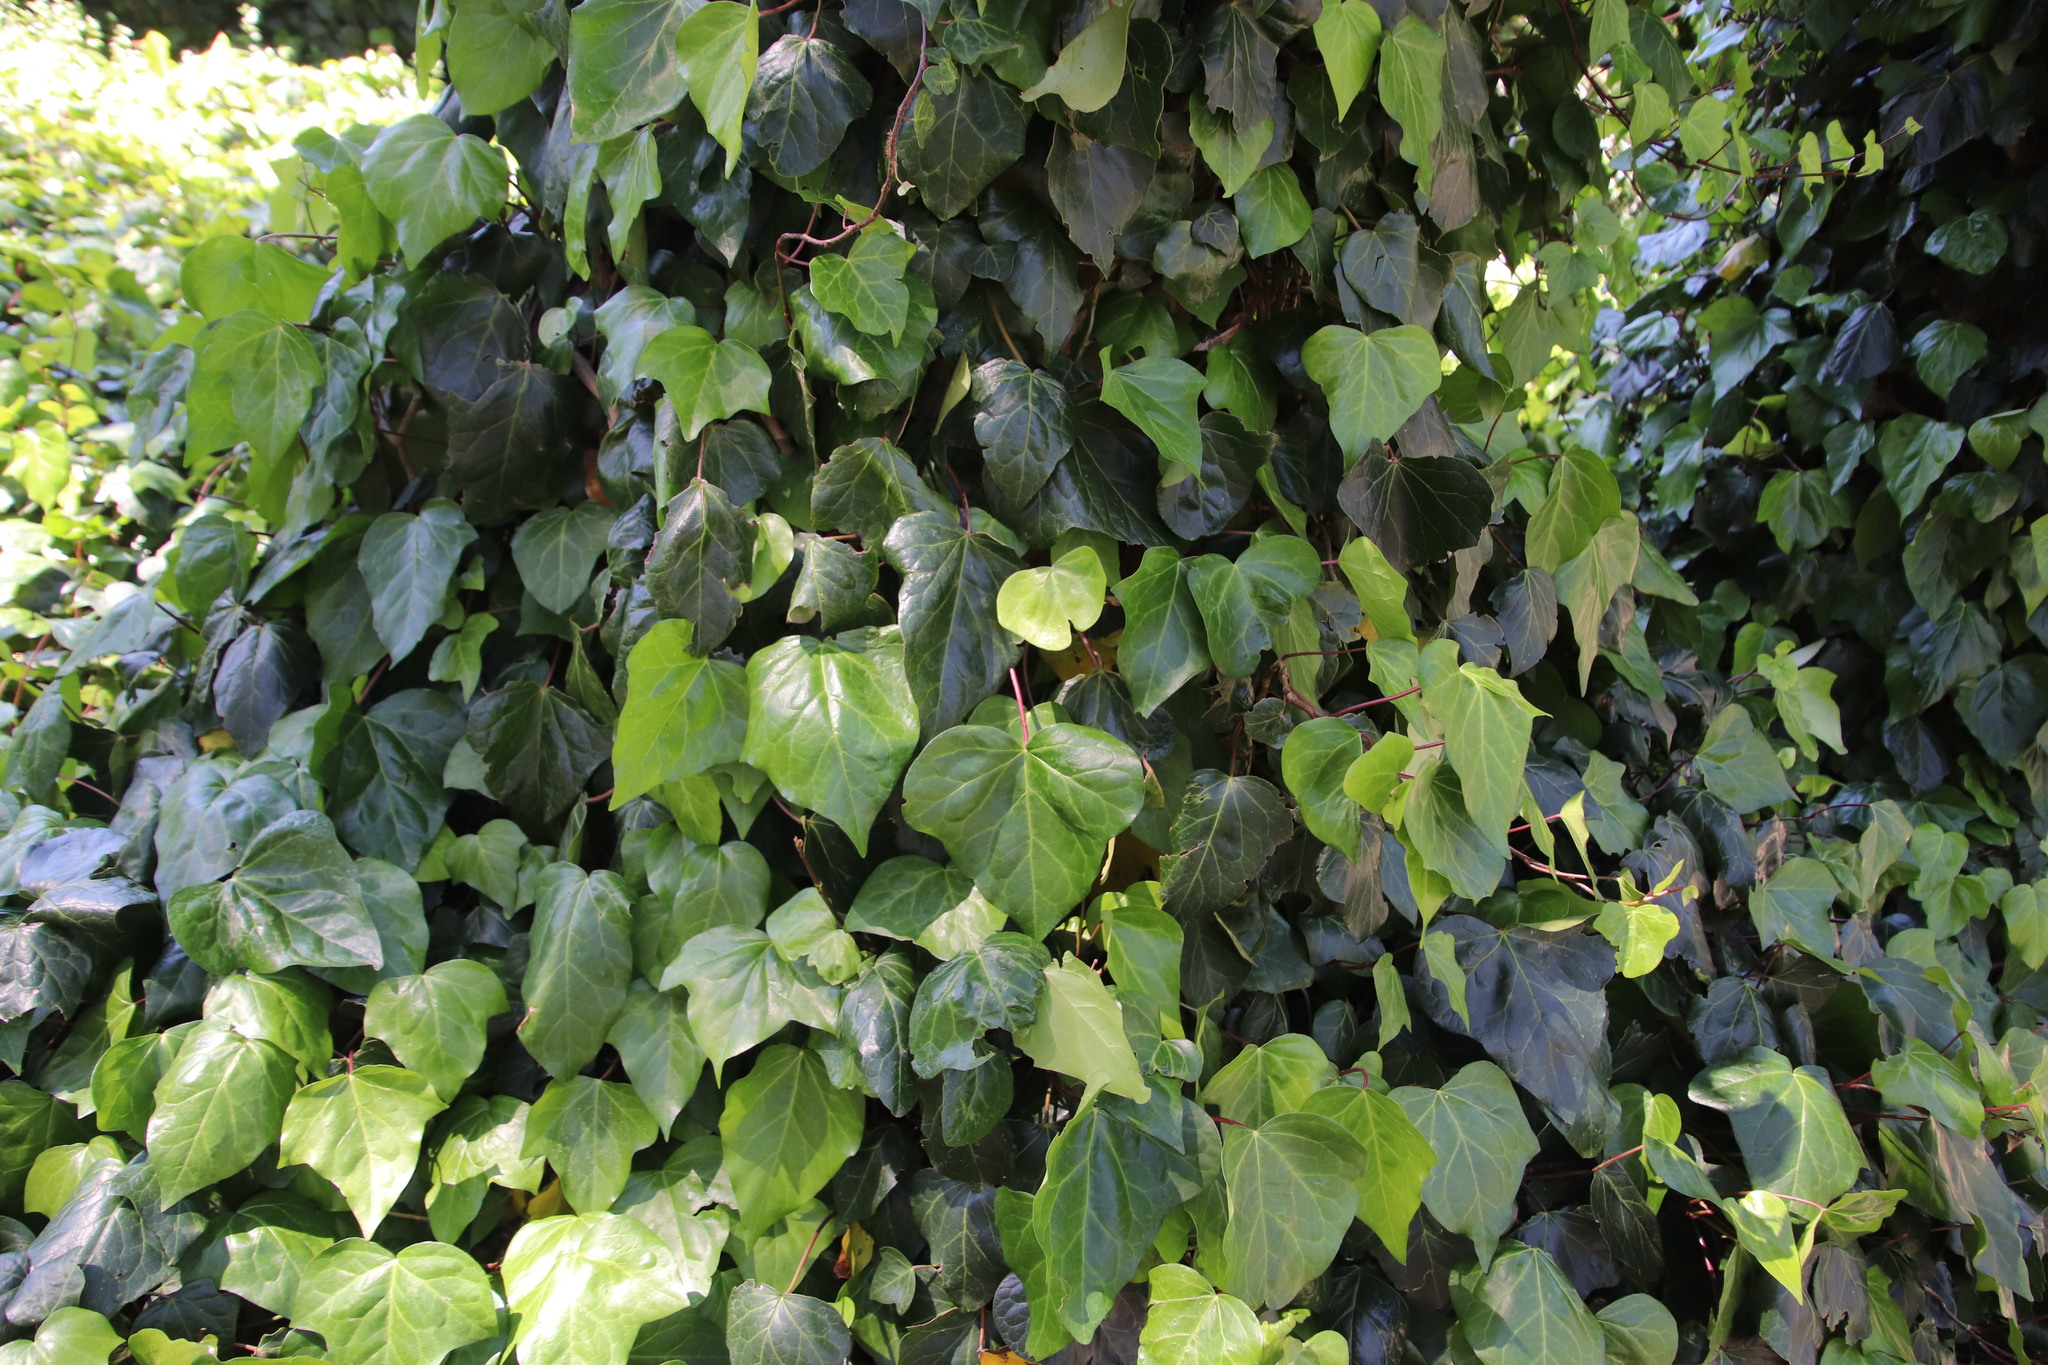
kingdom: Plantae
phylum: Tracheophyta
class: Magnoliopsida
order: Apiales
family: Araliaceae
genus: Hedera
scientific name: Hedera canariensis
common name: Madeira ivy
